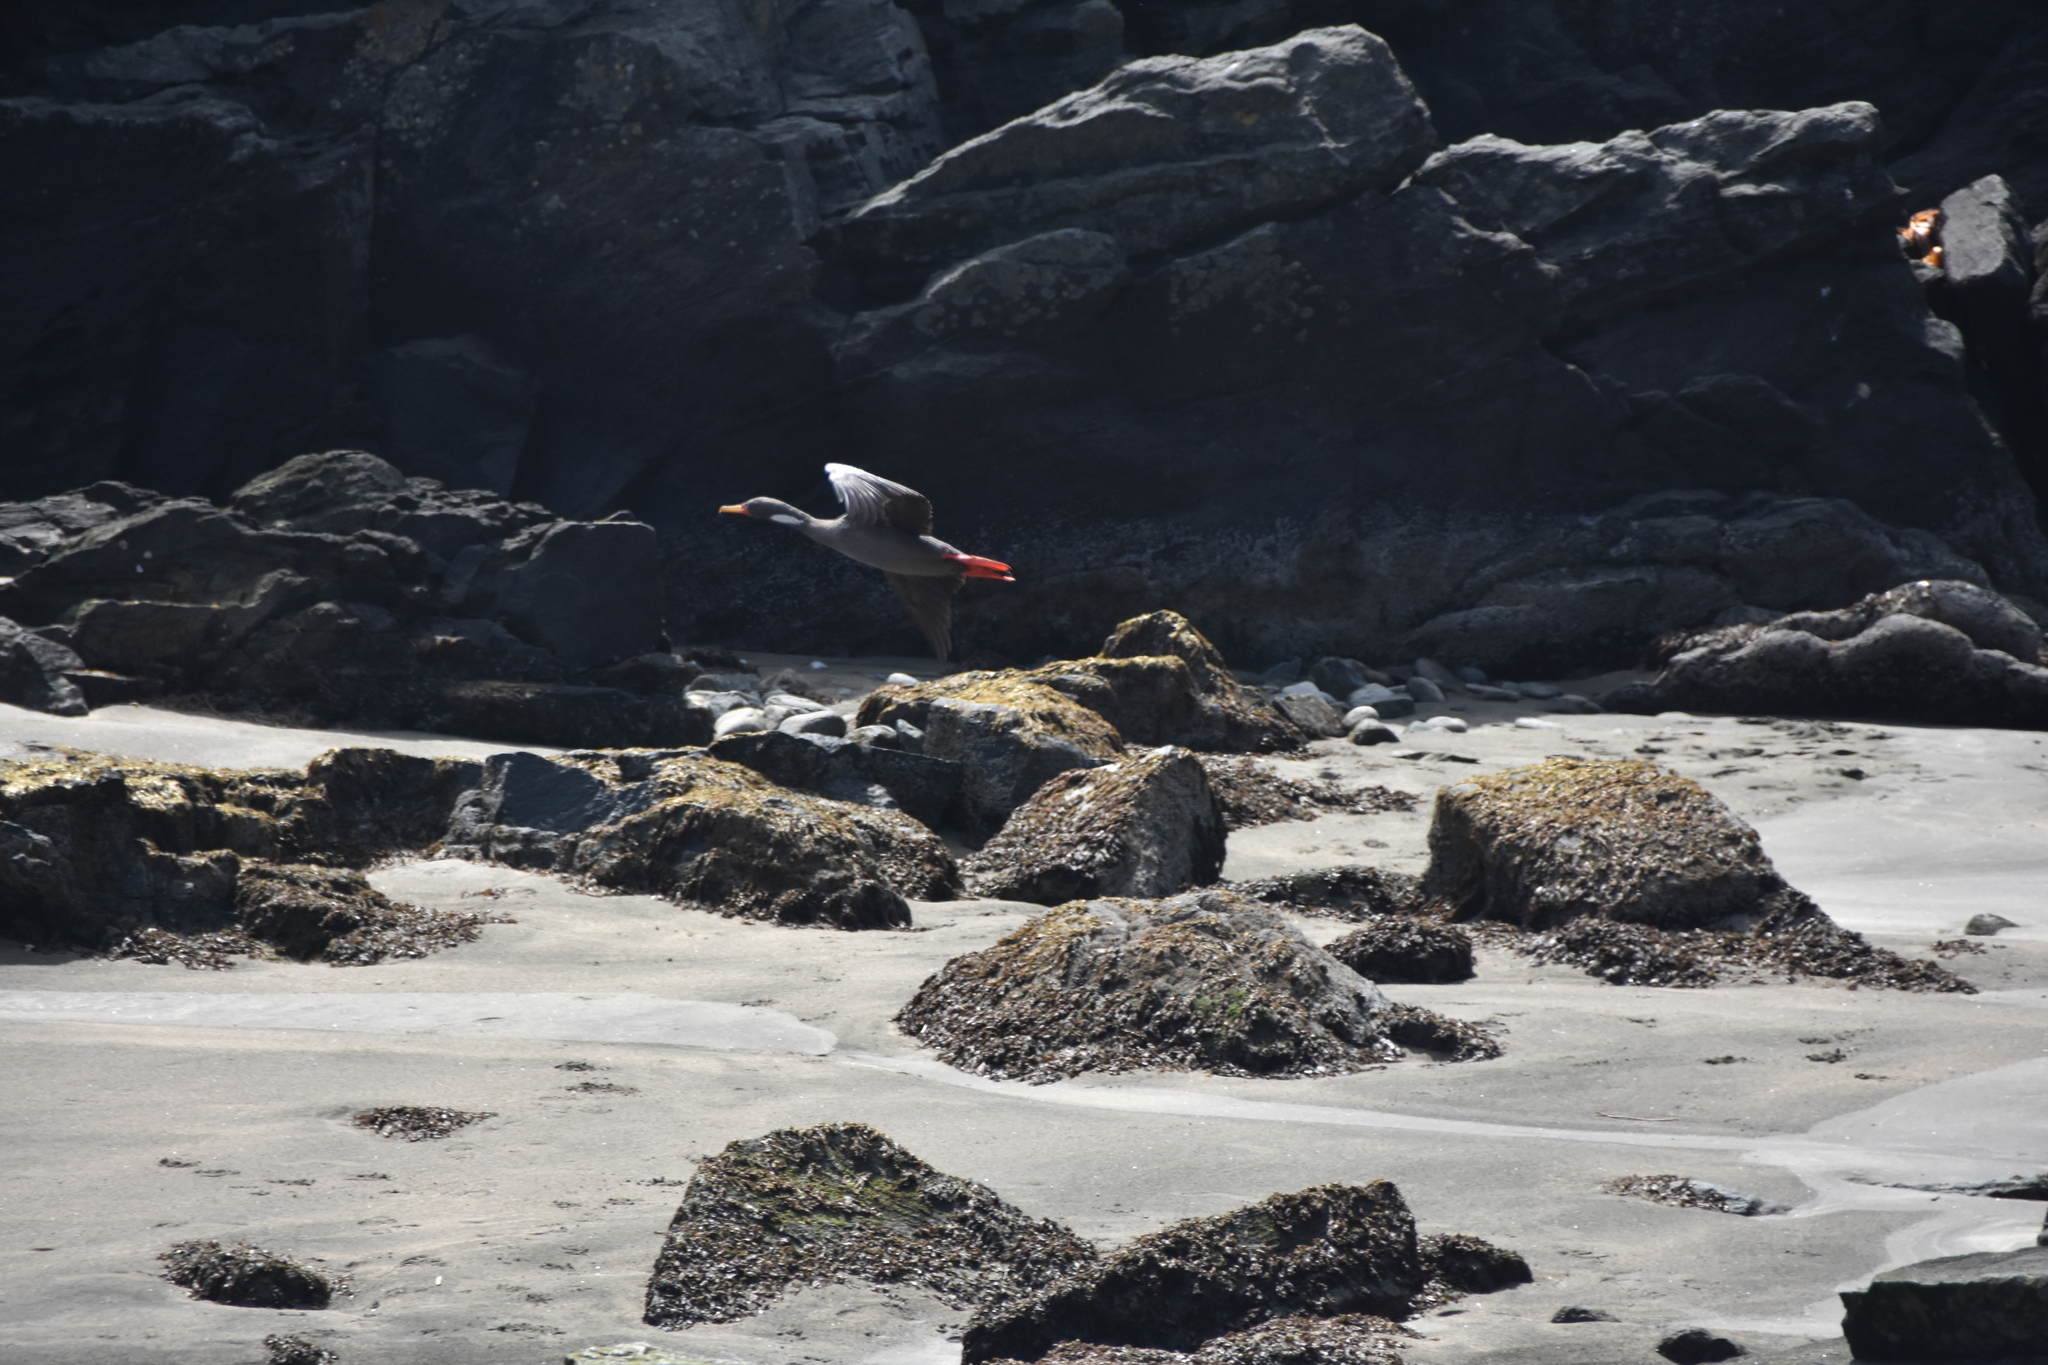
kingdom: Animalia
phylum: Chordata
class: Aves
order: Suliformes
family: Phalacrocoracidae
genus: Phalacrocorax
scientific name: Phalacrocorax gaimardi
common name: Red-legged cormorant
